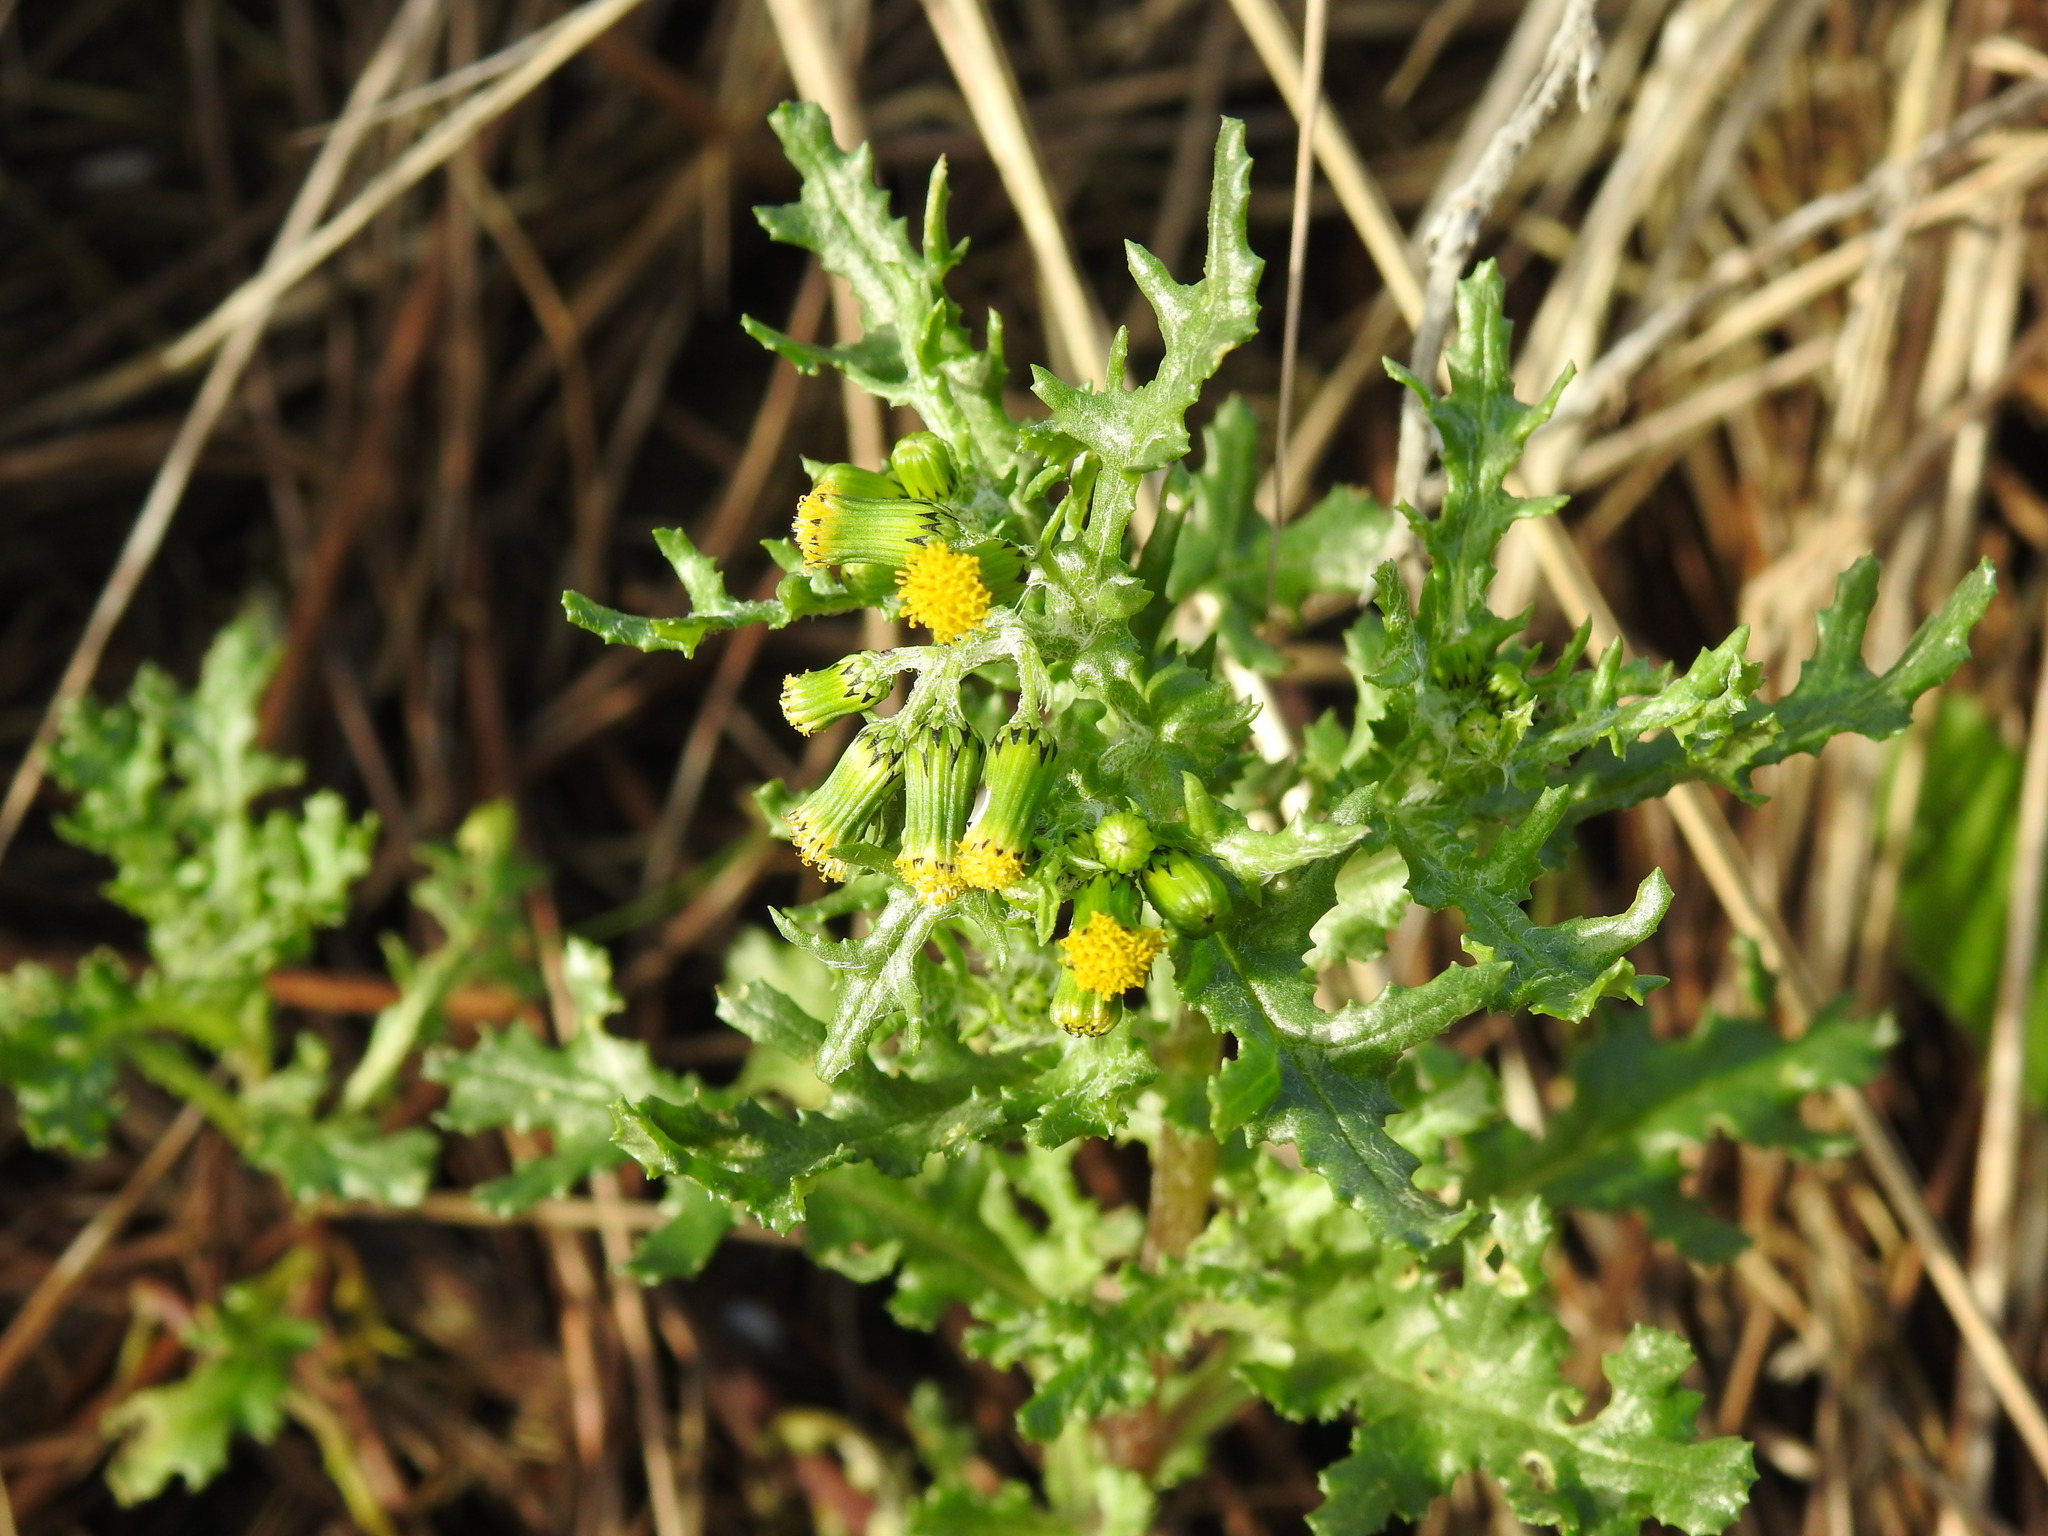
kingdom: Plantae
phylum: Tracheophyta
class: Magnoliopsida
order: Asterales
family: Asteraceae
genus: Senecio
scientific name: Senecio vulgaris
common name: Old-man-in-the-spring
